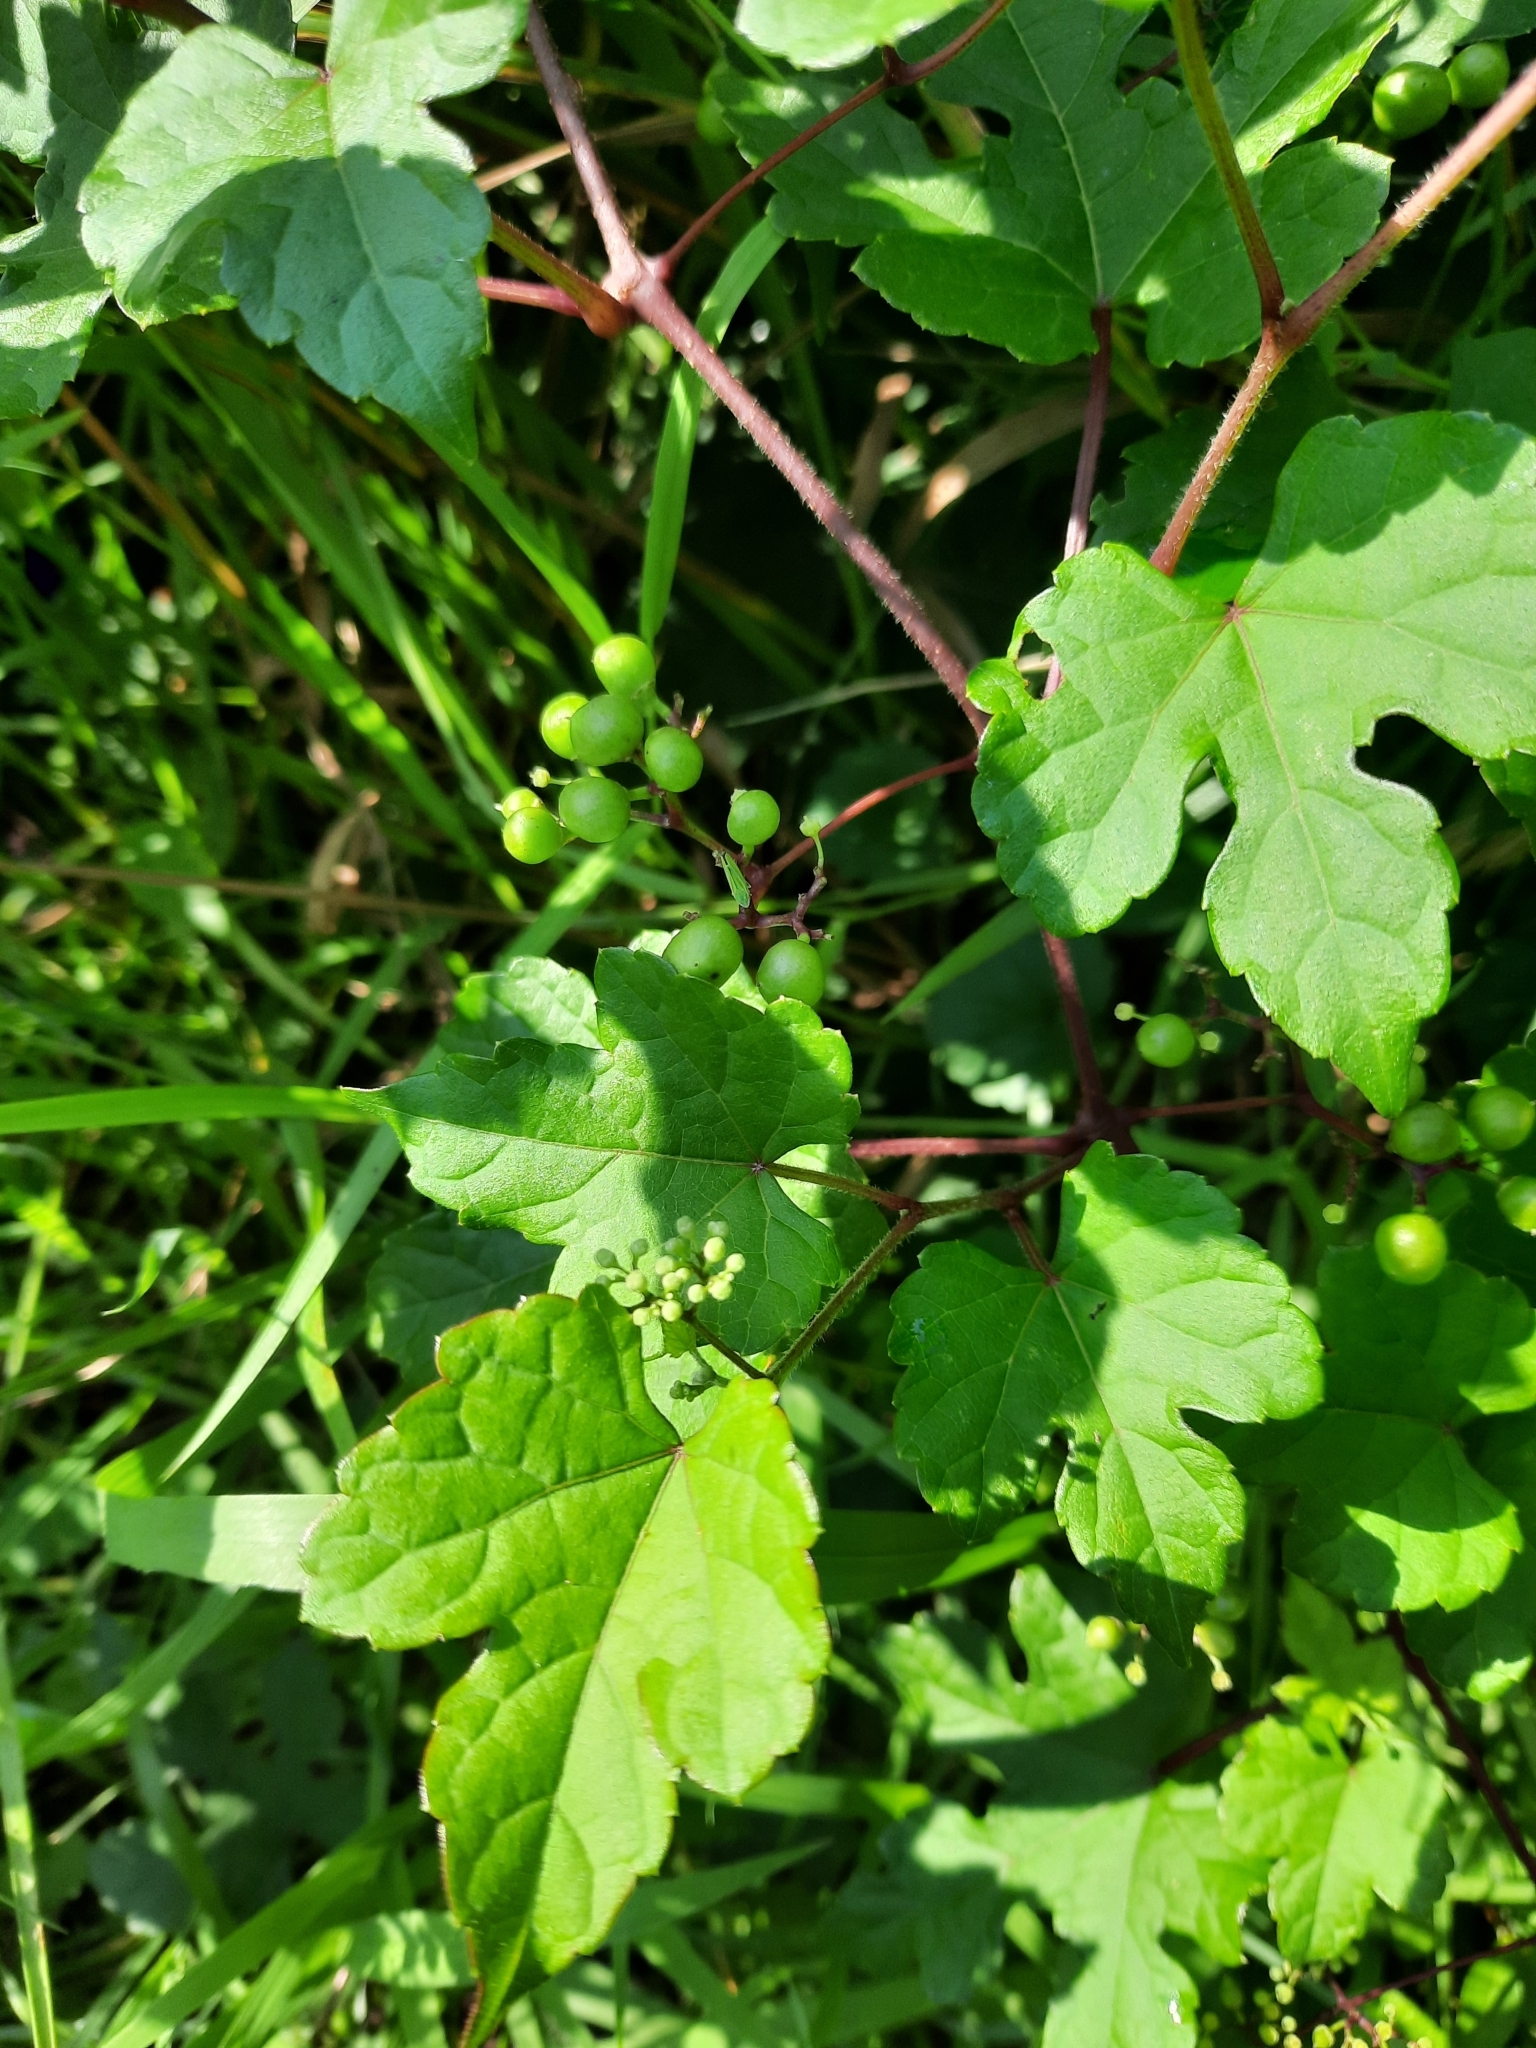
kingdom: Plantae
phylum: Tracheophyta
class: Magnoliopsida
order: Vitales
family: Vitaceae
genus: Ampelopsis
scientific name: Ampelopsis glandulosa
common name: Amur peppervine
